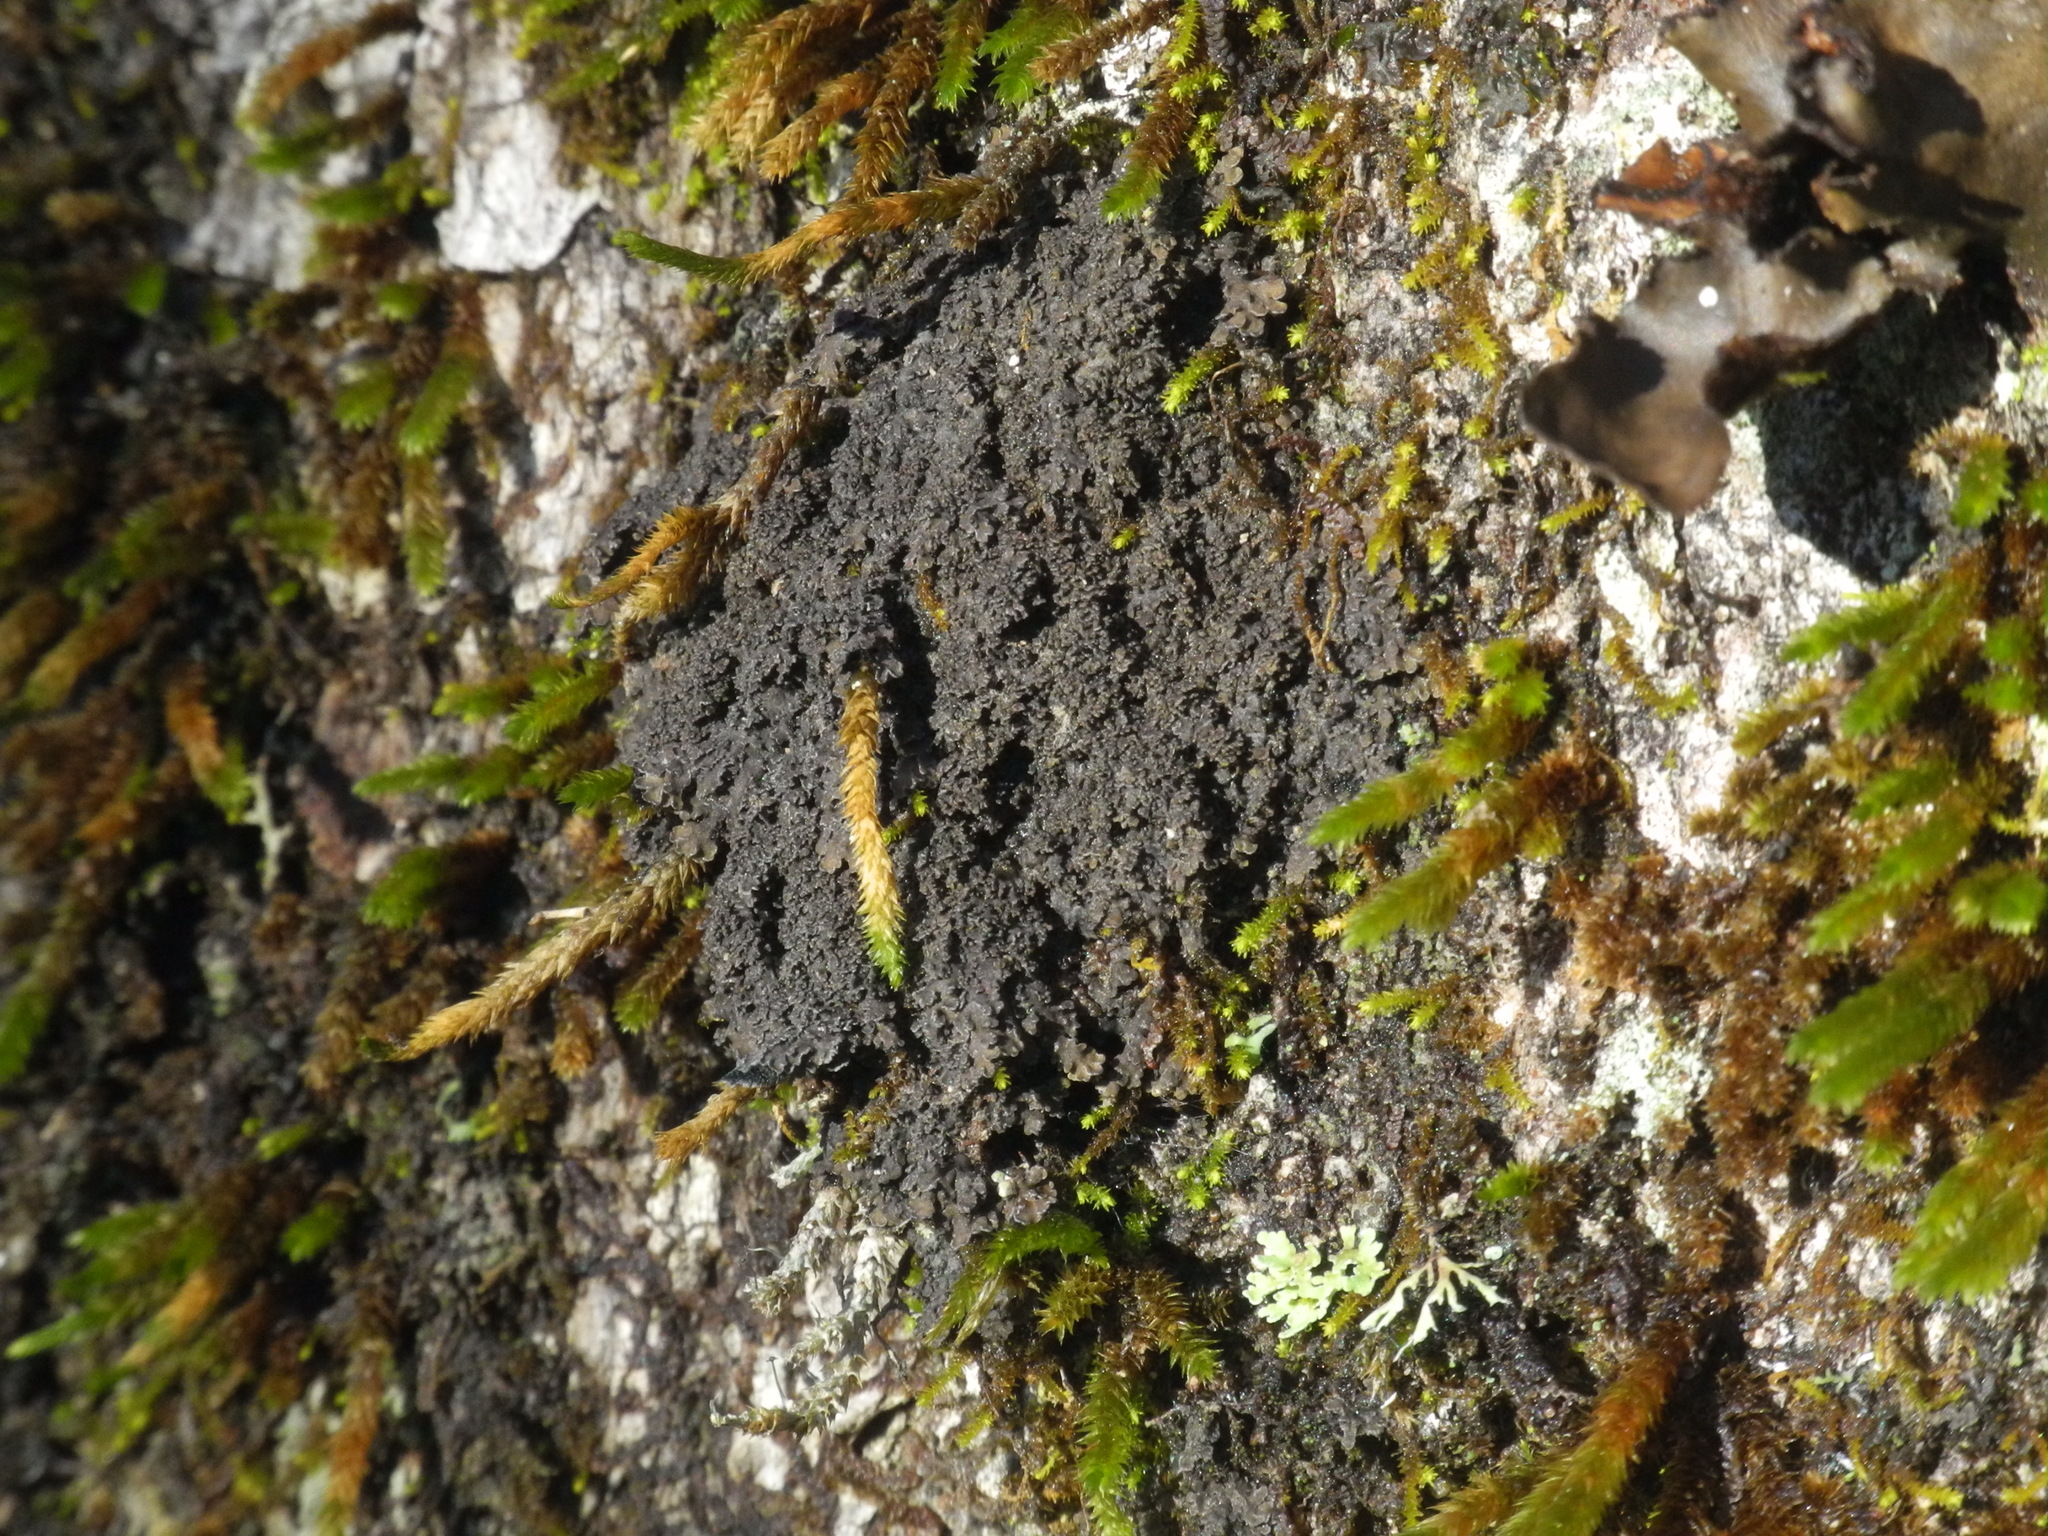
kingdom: Fungi
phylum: Ascomycota
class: Lecanoromycetes
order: Peltigerales
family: Pannariaceae
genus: Parmeliella
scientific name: Parmeliella thriptophylla
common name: Black-bordered shingle lichen
